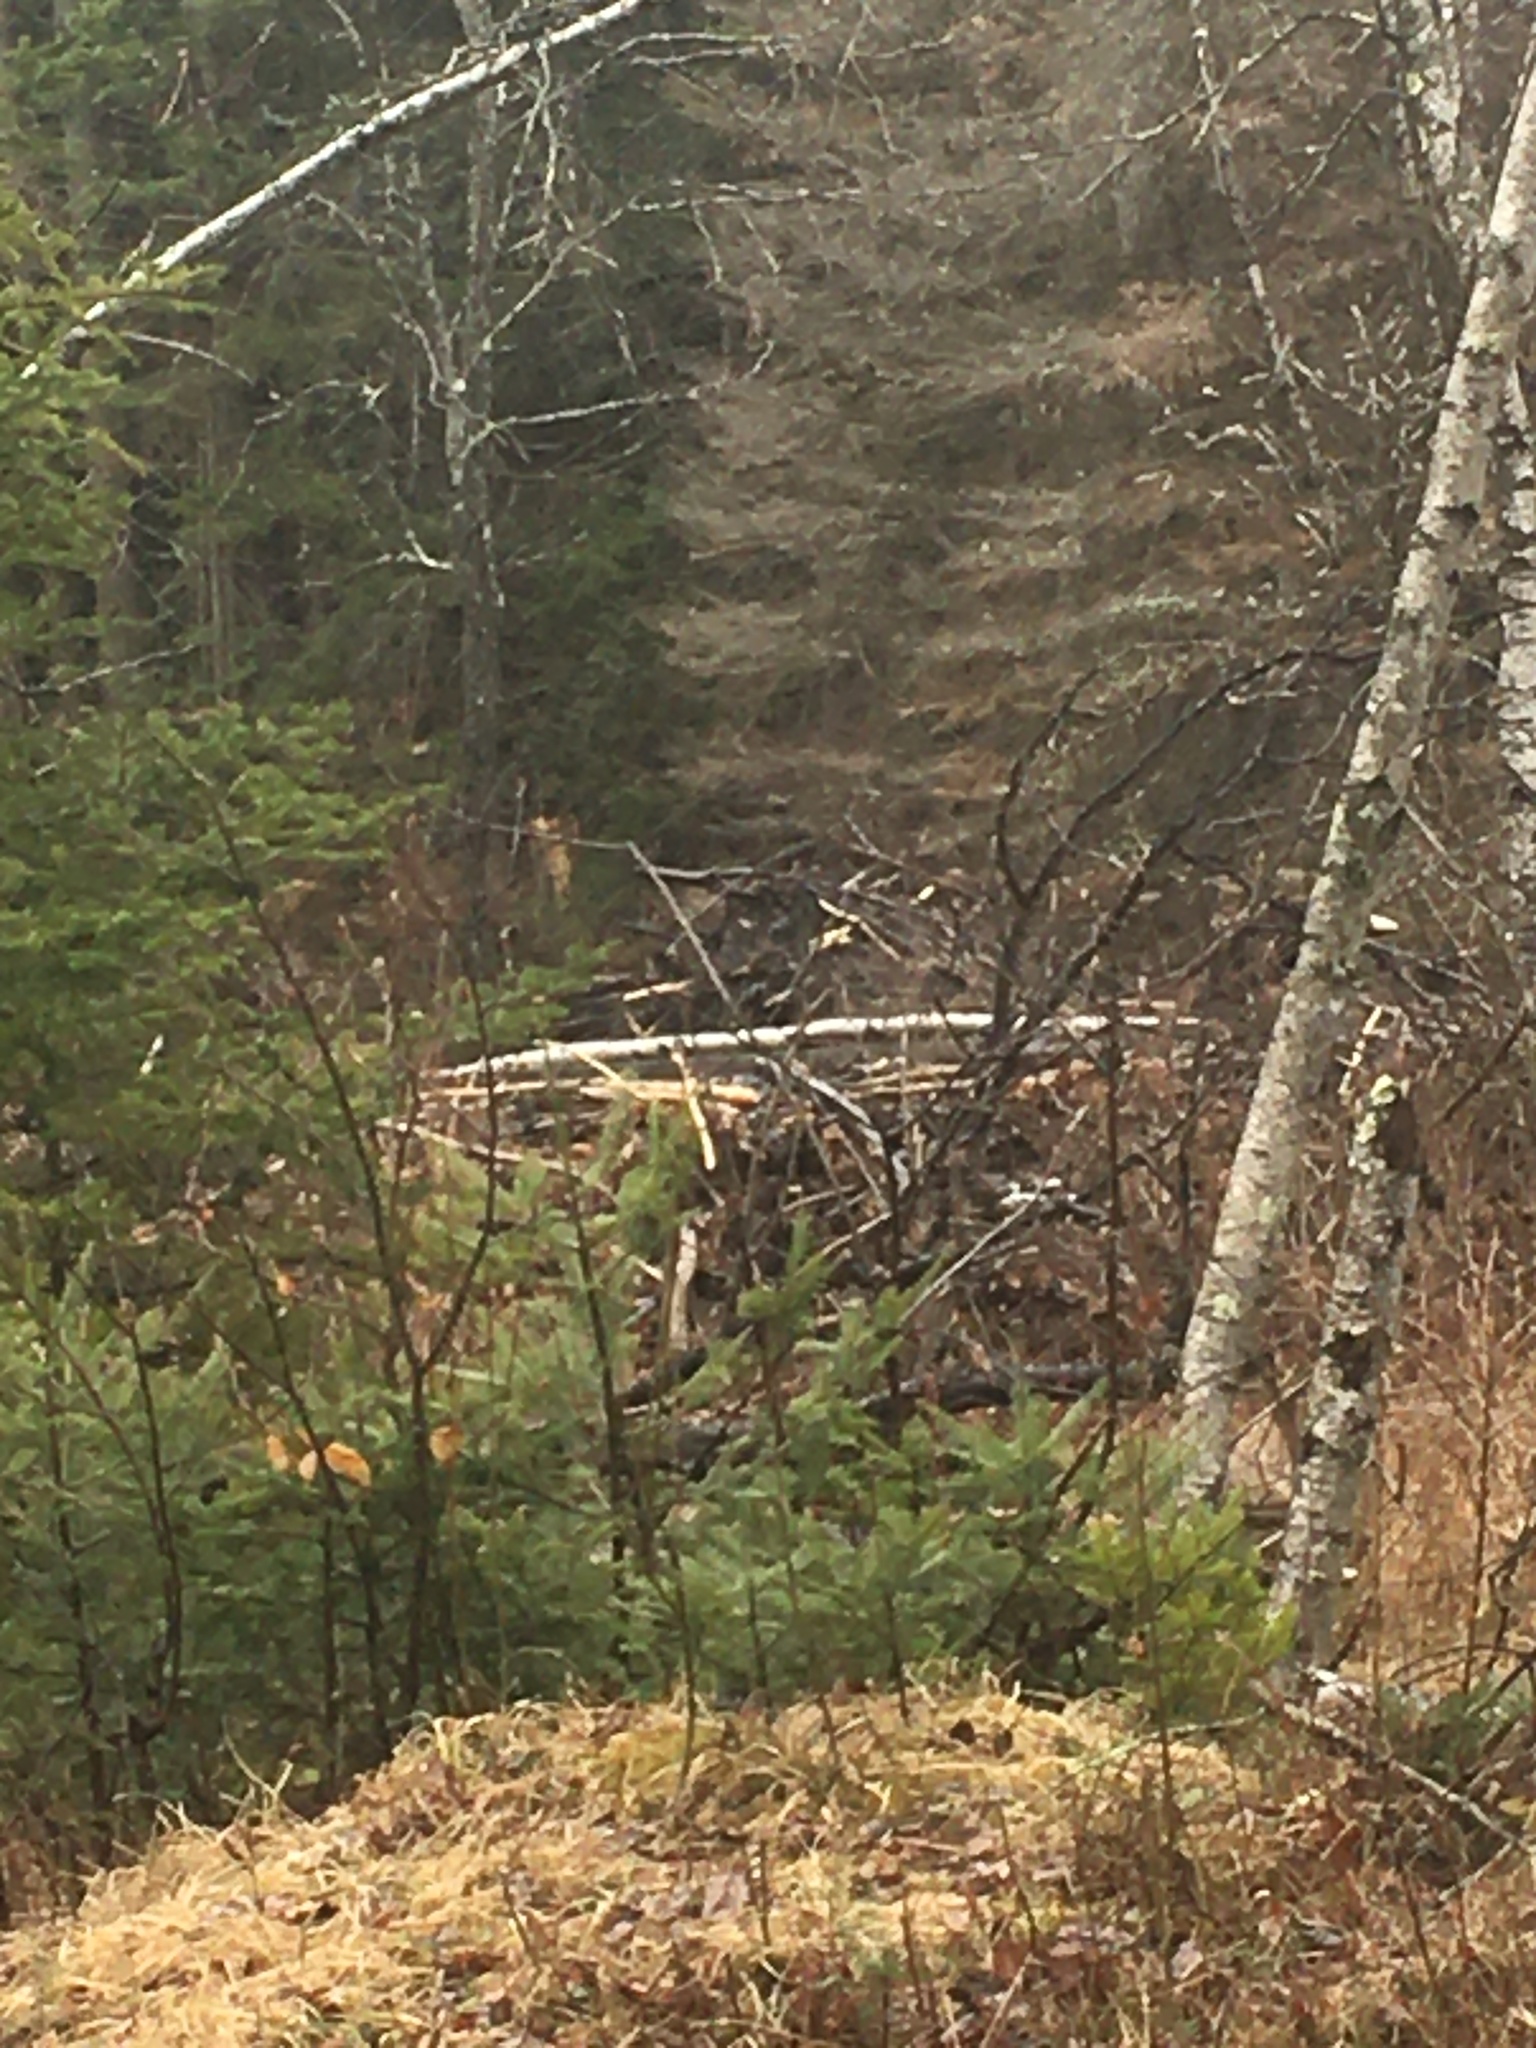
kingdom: Animalia
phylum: Chordata
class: Mammalia
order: Rodentia
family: Castoridae
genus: Castor
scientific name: Castor canadensis
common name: American beaver
